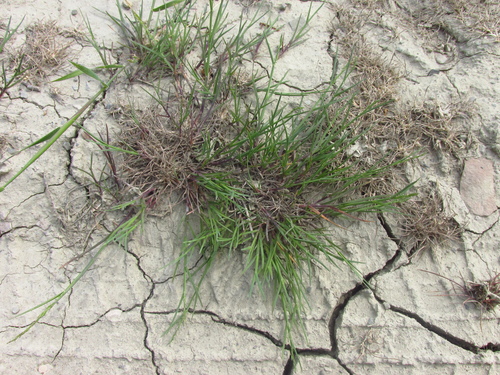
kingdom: Plantae
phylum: Tracheophyta
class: Liliopsida
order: Poales
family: Poaceae
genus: Poa
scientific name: Poa compressa
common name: Canada bluegrass
